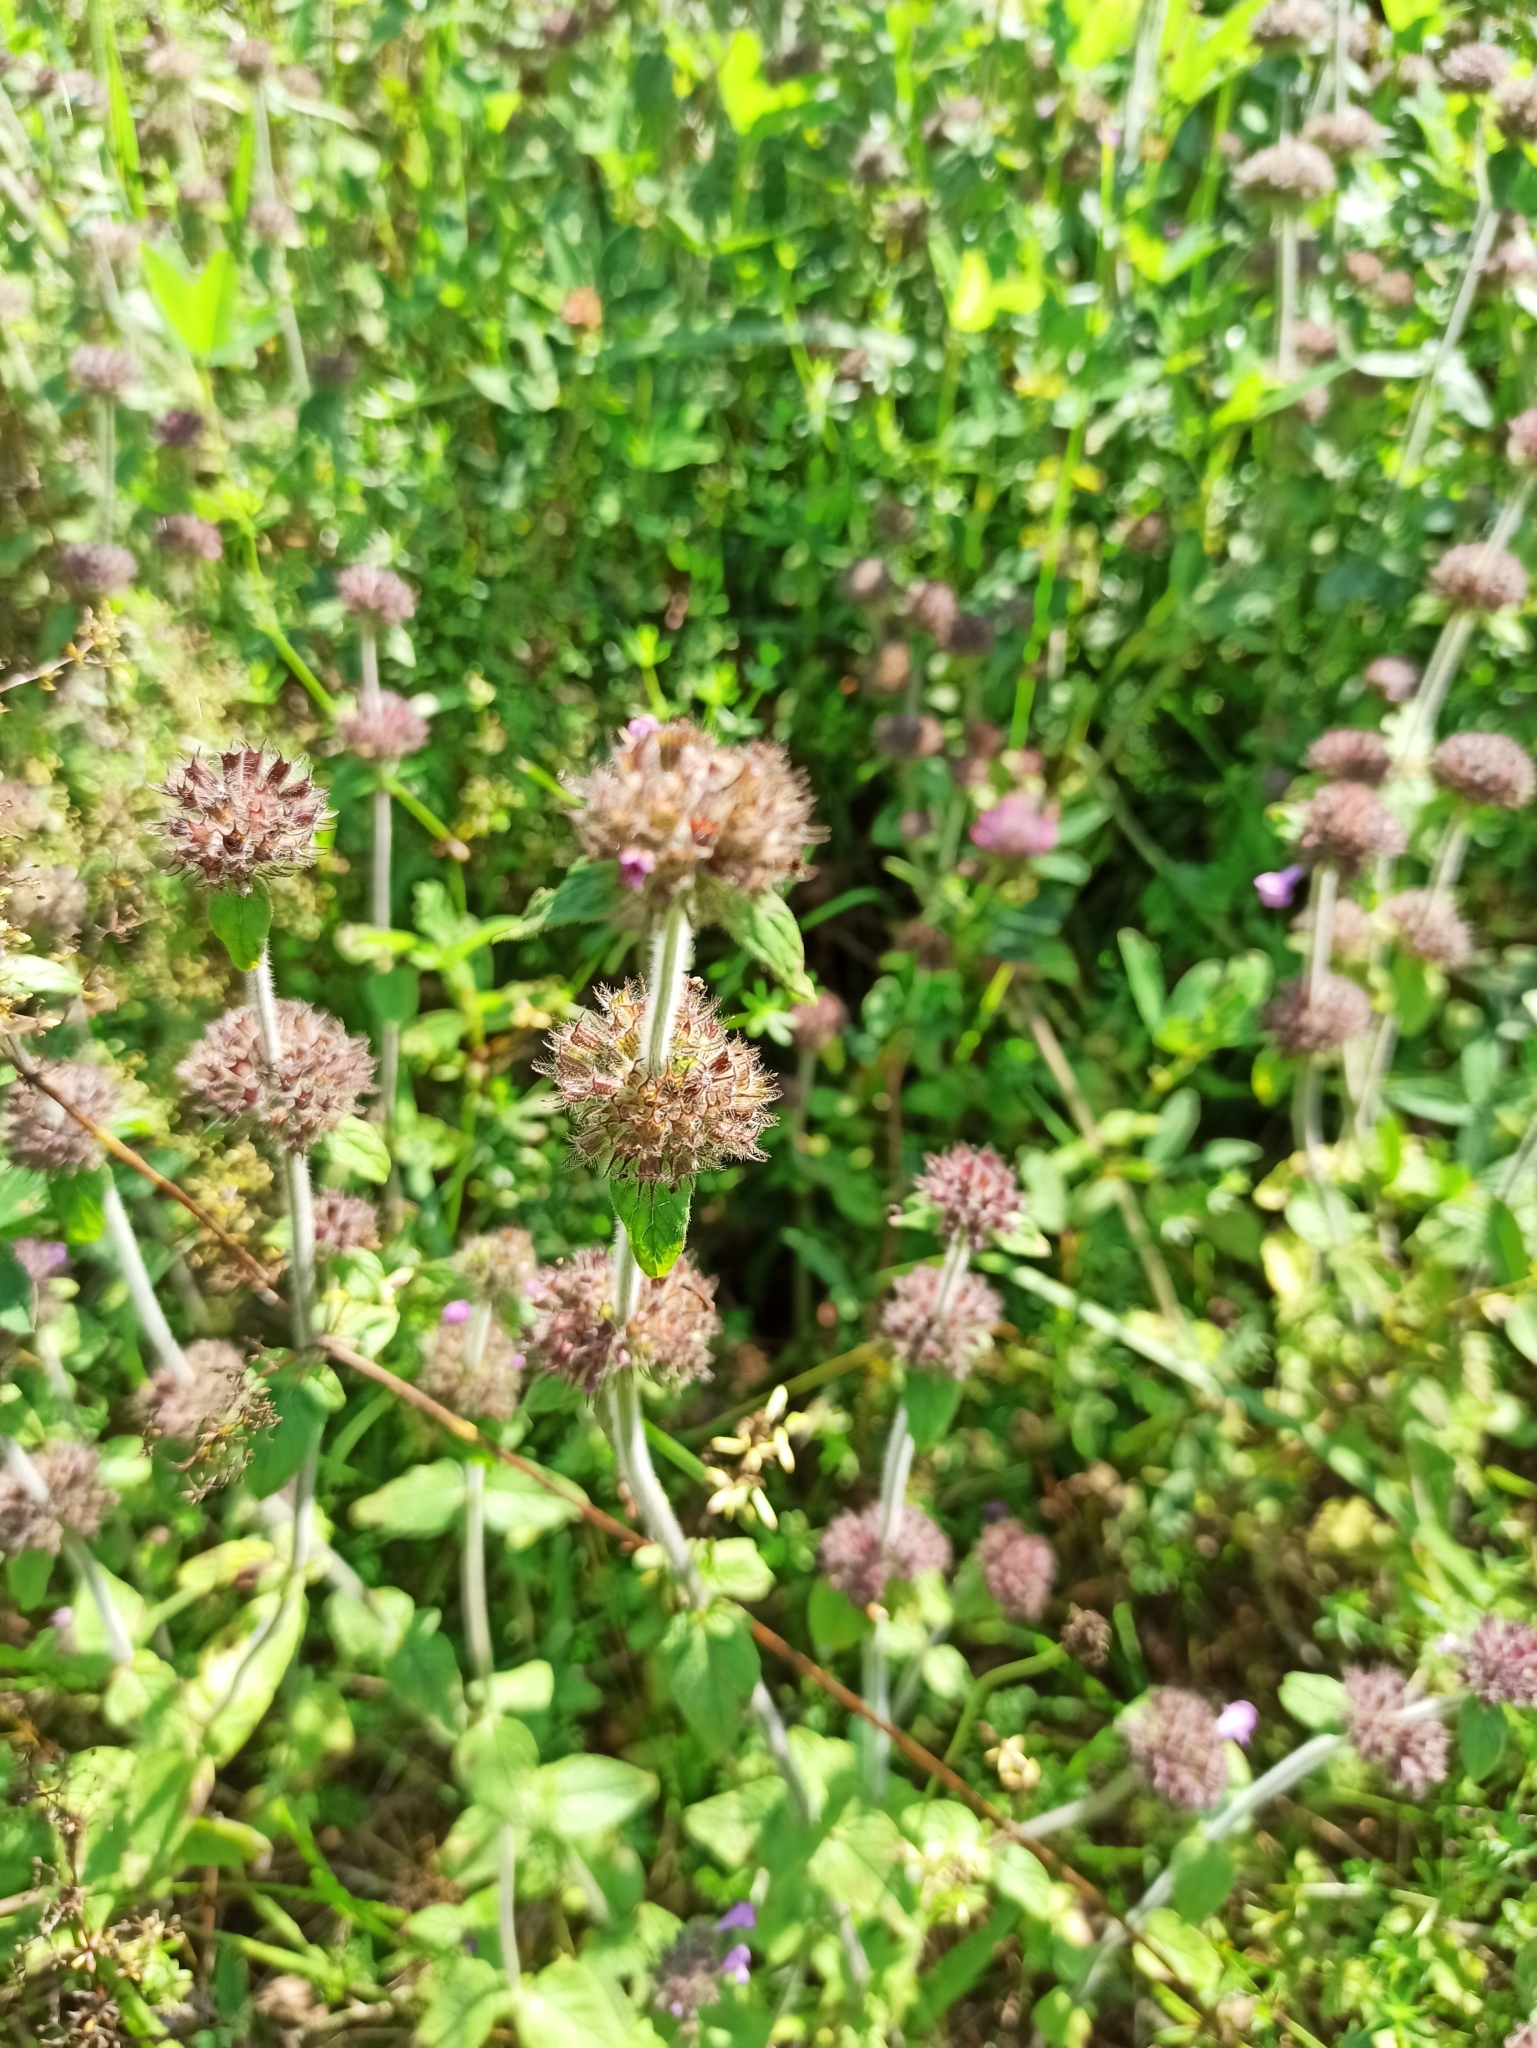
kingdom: Plantae
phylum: Tracheophyta
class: Magnoliopsida
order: Lamiales
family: Lamiaceae
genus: Clinopodium
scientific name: Clinopodium vulgare
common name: Wild basil
